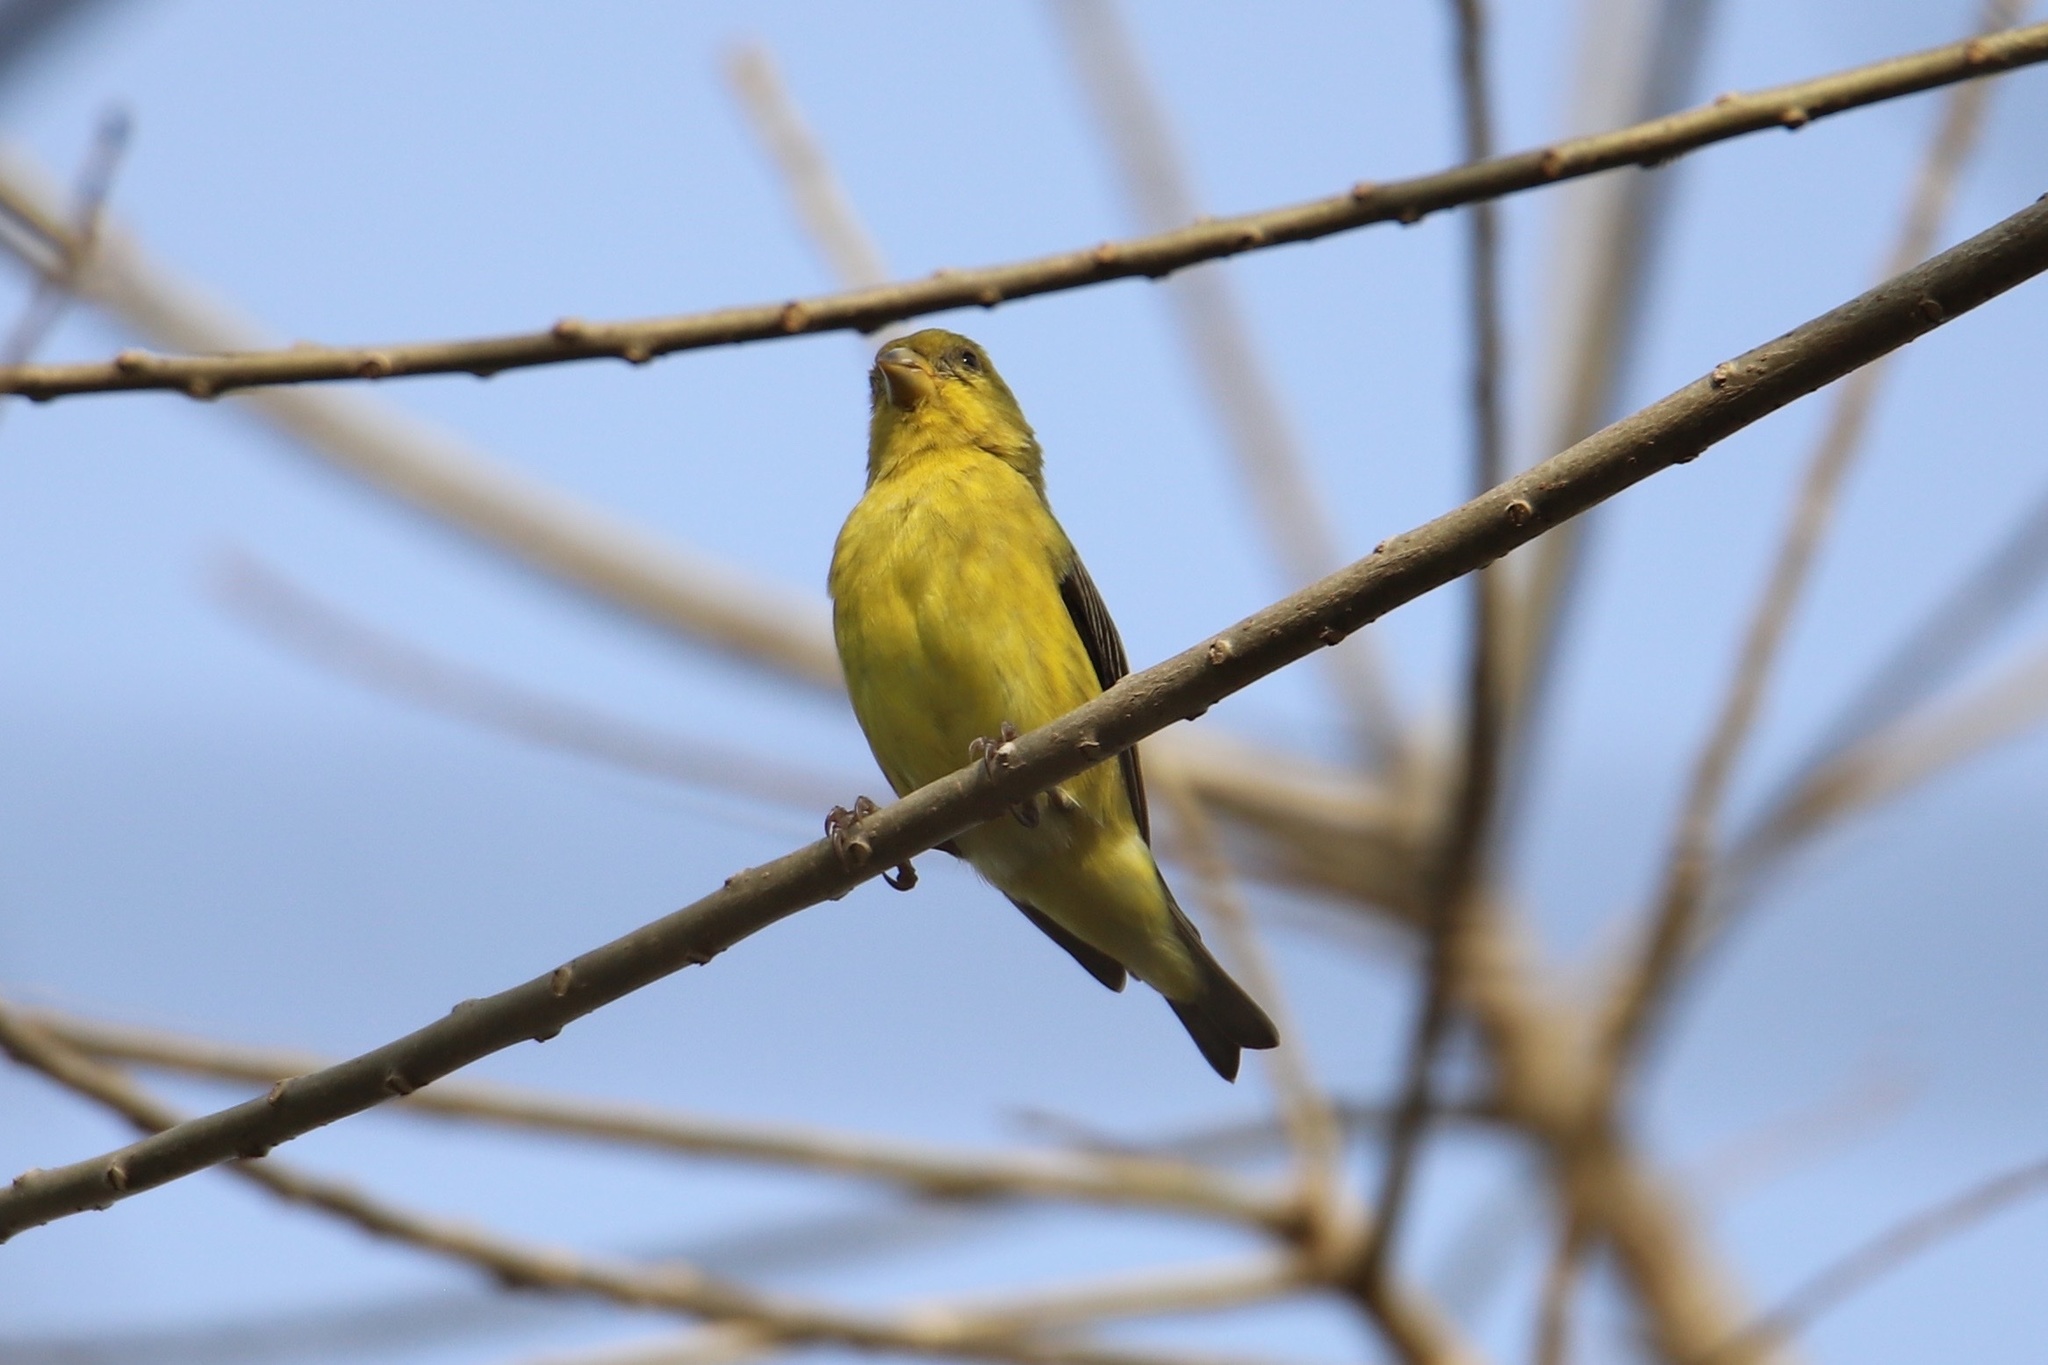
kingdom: Animalia
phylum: Chordata
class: Aves
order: Passeriformes
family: Fringillidae
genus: Spinus
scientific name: Spinus psaltria
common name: Lesser goldfinch
